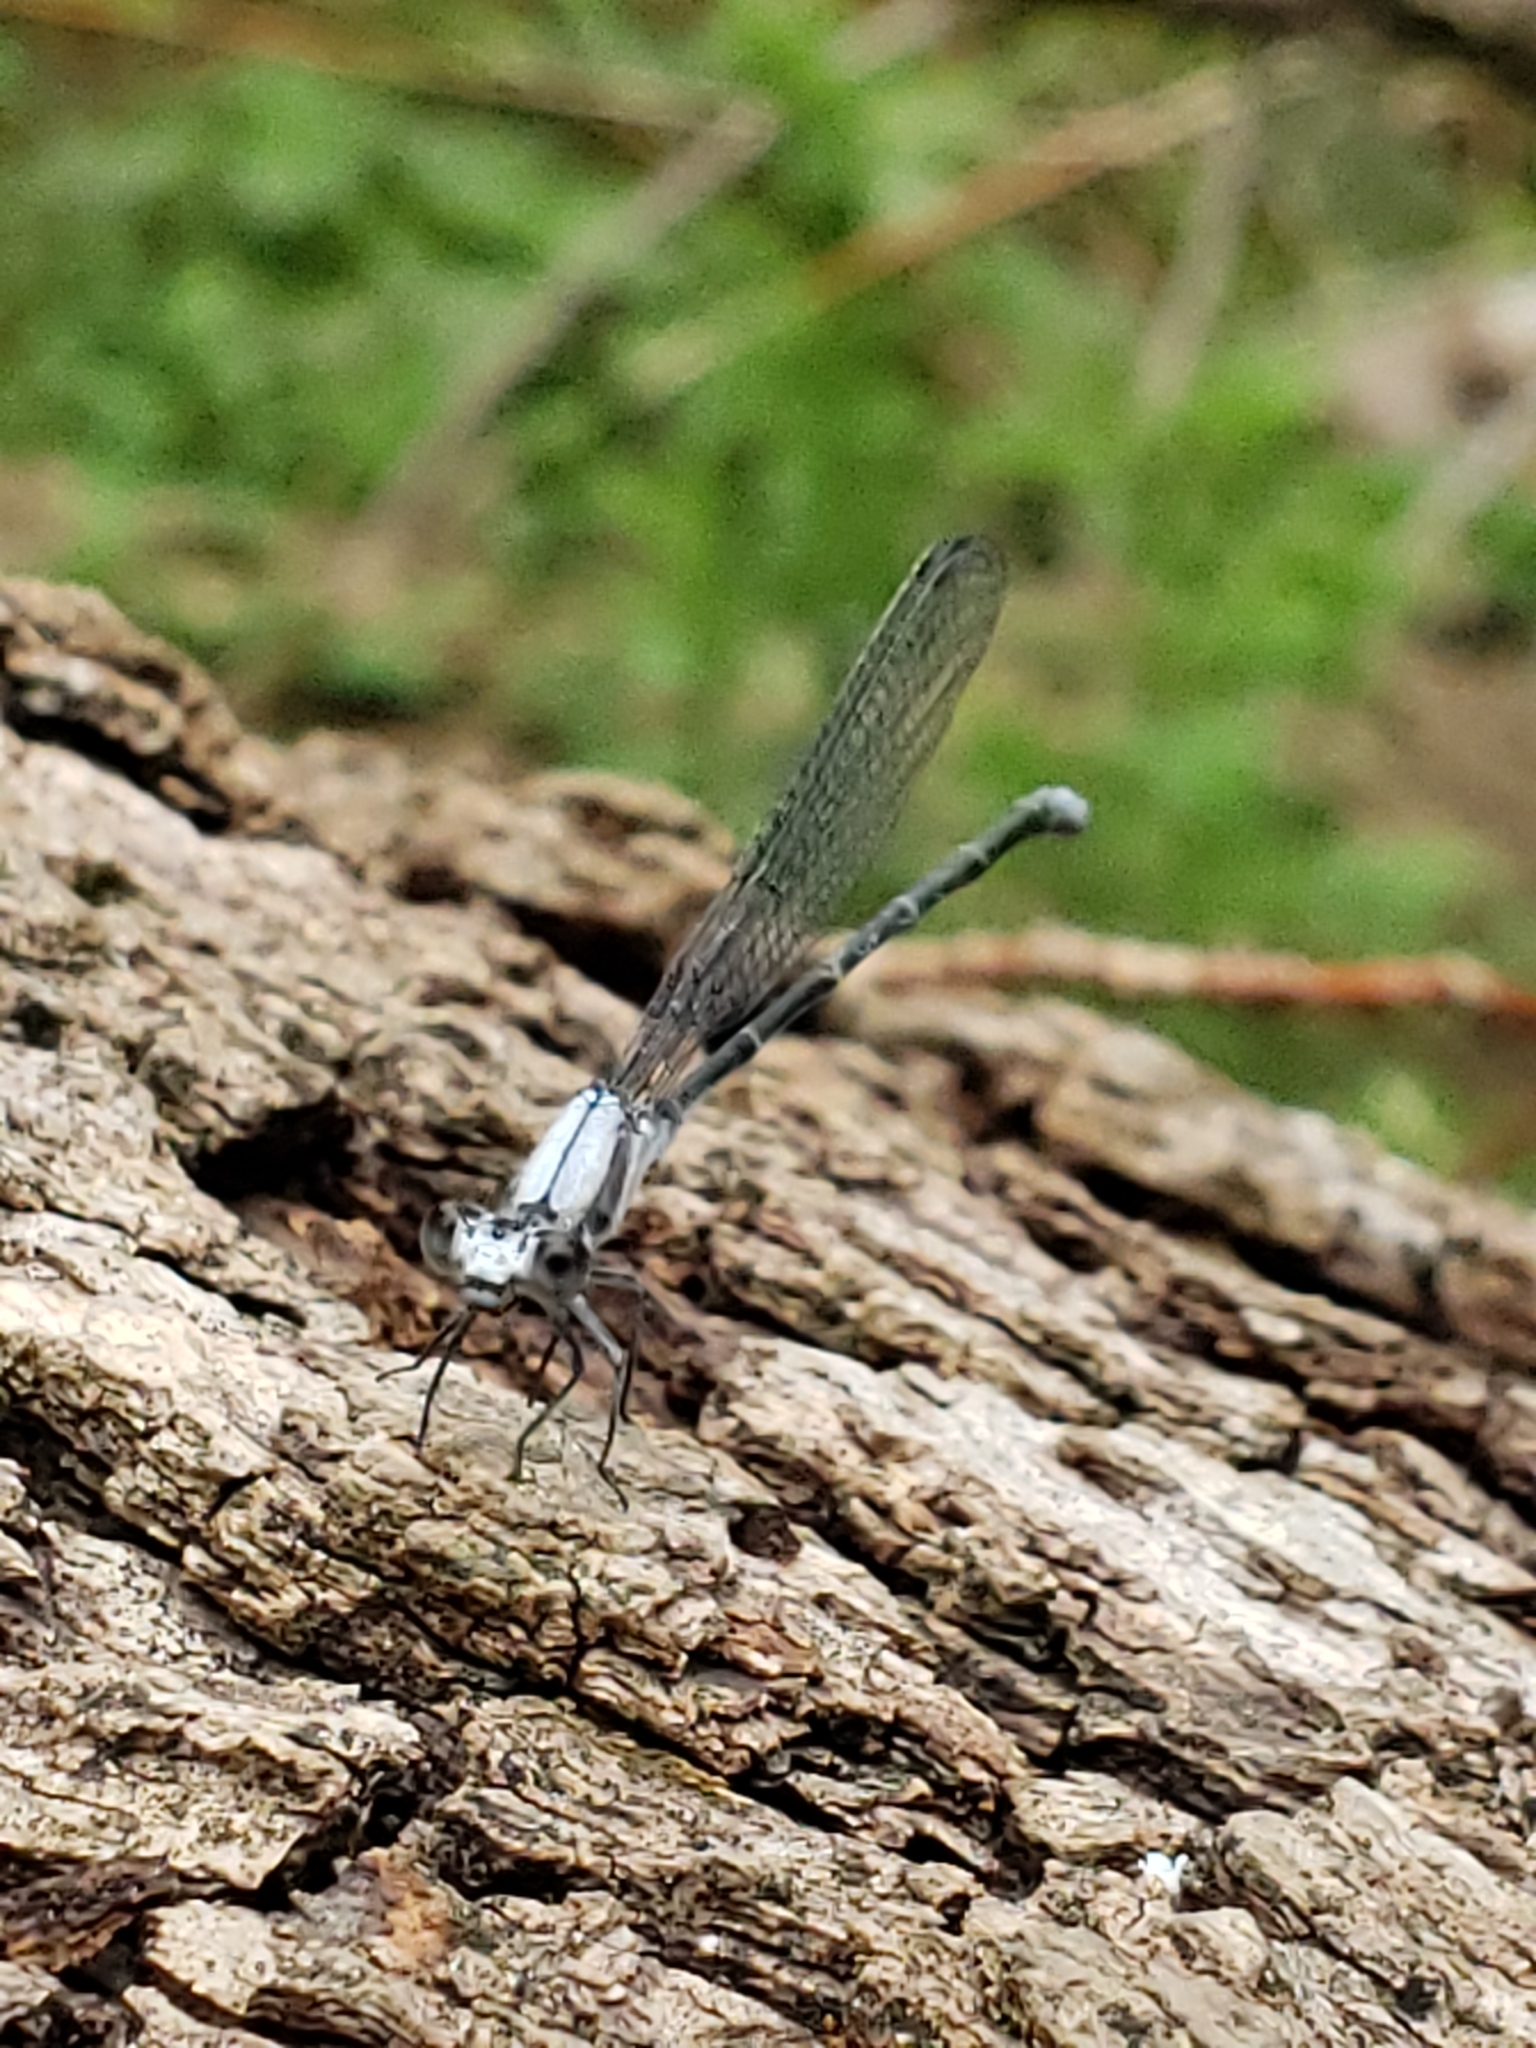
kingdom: Animalia
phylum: Arthropoda
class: Insecta
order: Odonata
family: Coenagrionidae
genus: Argia
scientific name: Argia moesta
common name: Powdered dancer
